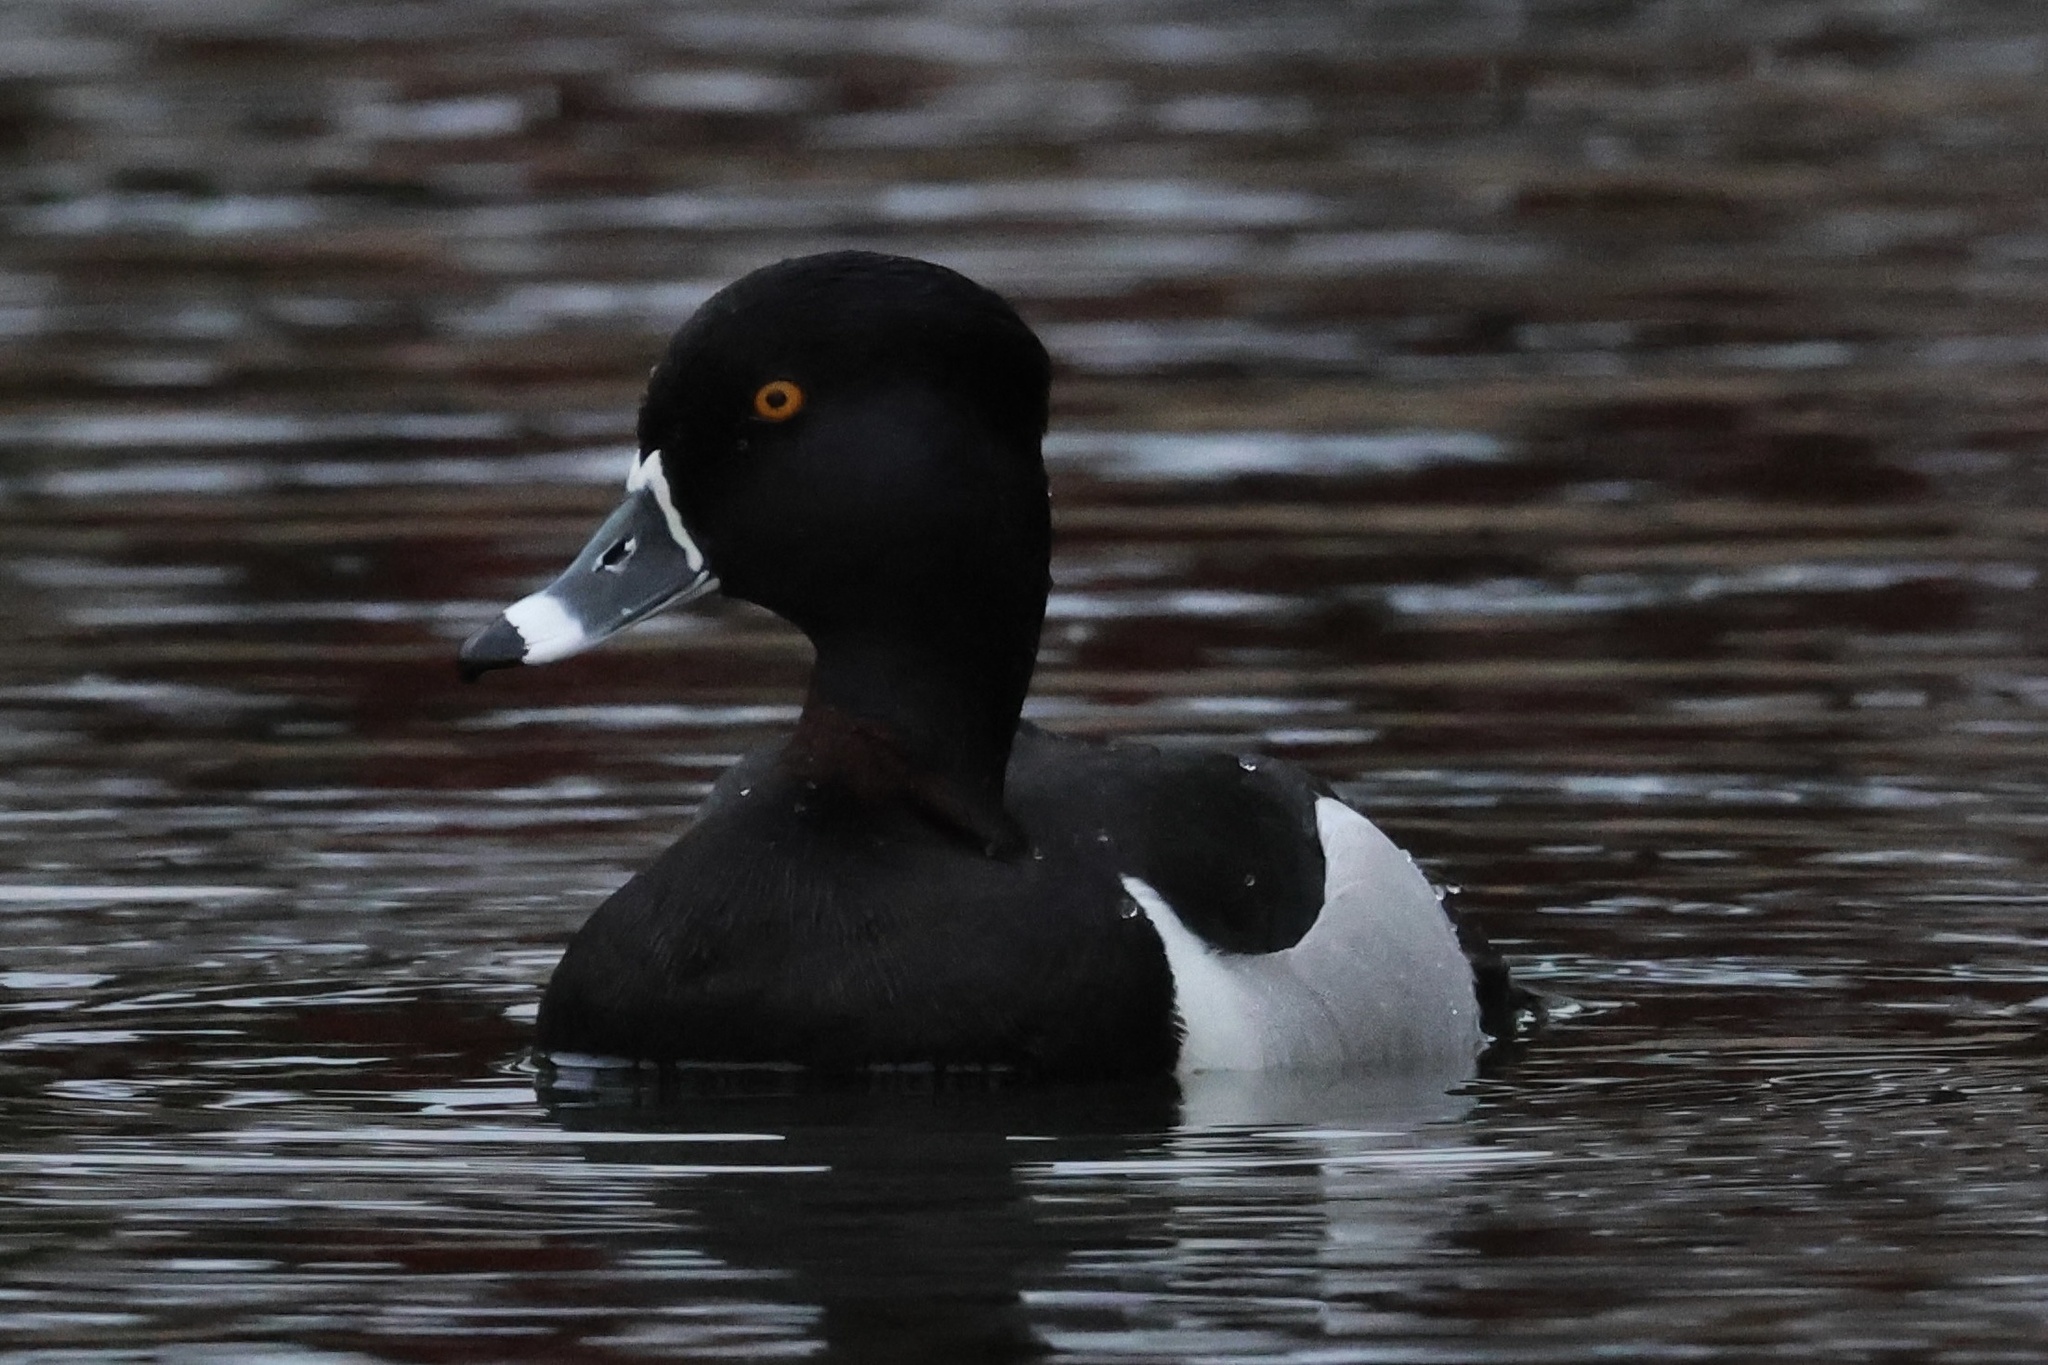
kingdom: Animalia
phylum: Chordata
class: Aves
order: Anseriformes
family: Anatidae
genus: Aythya
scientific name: Aythya collaris
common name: Ring-necked duck
